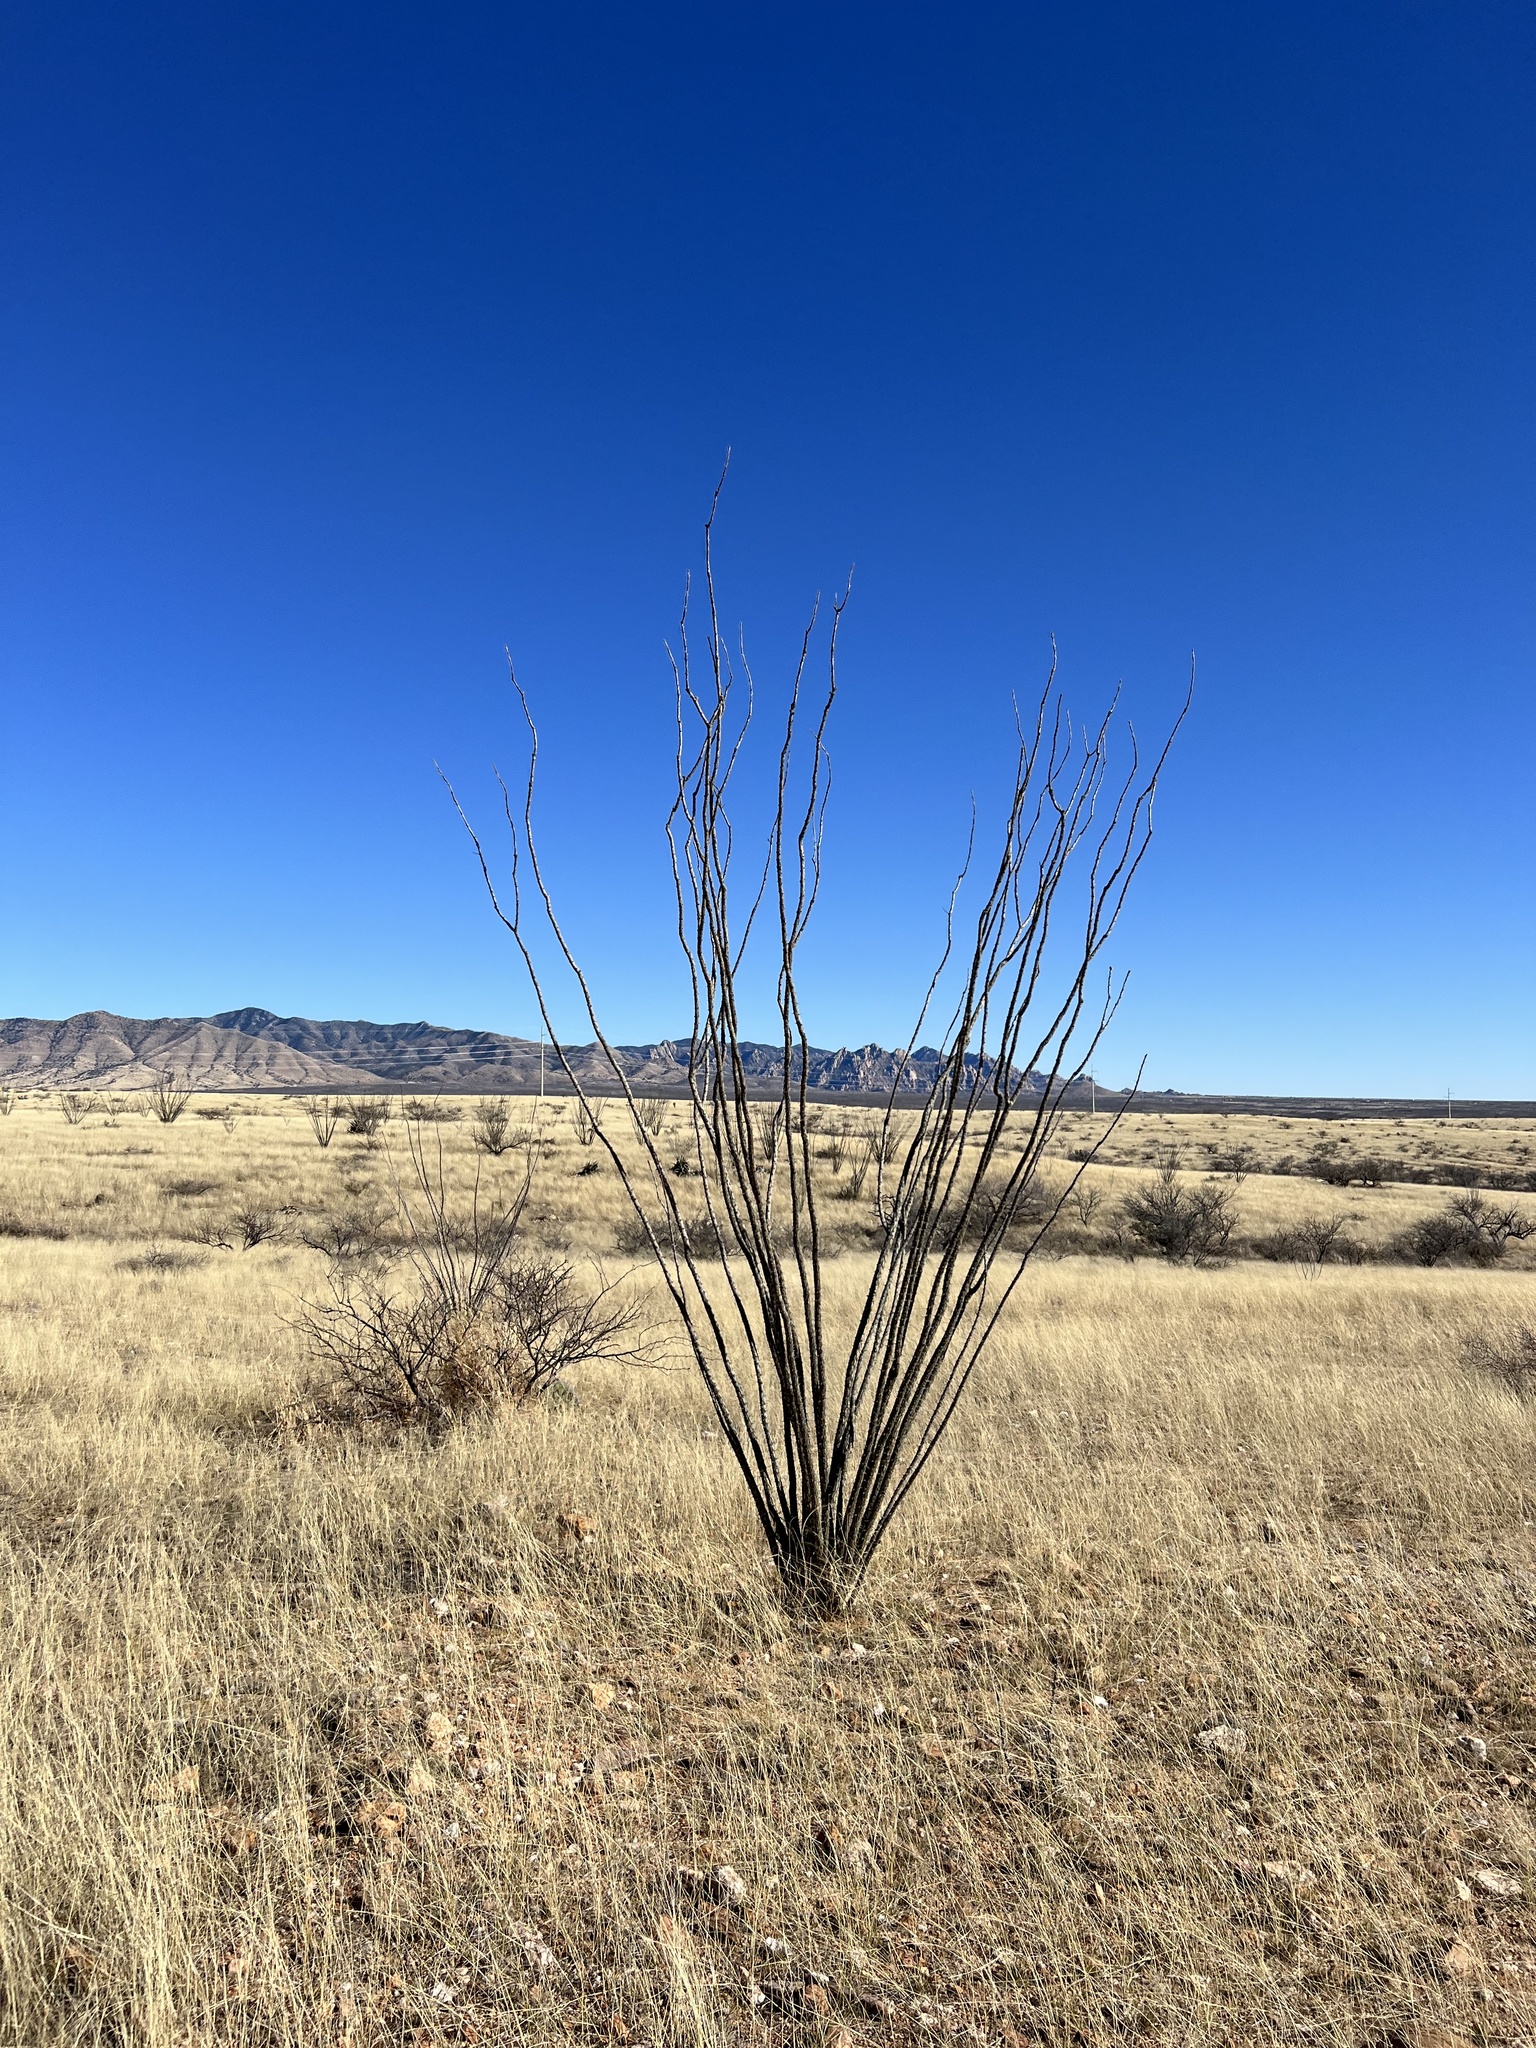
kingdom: Plantae
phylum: Tracheophyta
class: Magnoliopsida
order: Ericales
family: Fouquieriaceae
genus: Fouquieria
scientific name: Fouquieria splendens
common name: Vine-cactus
